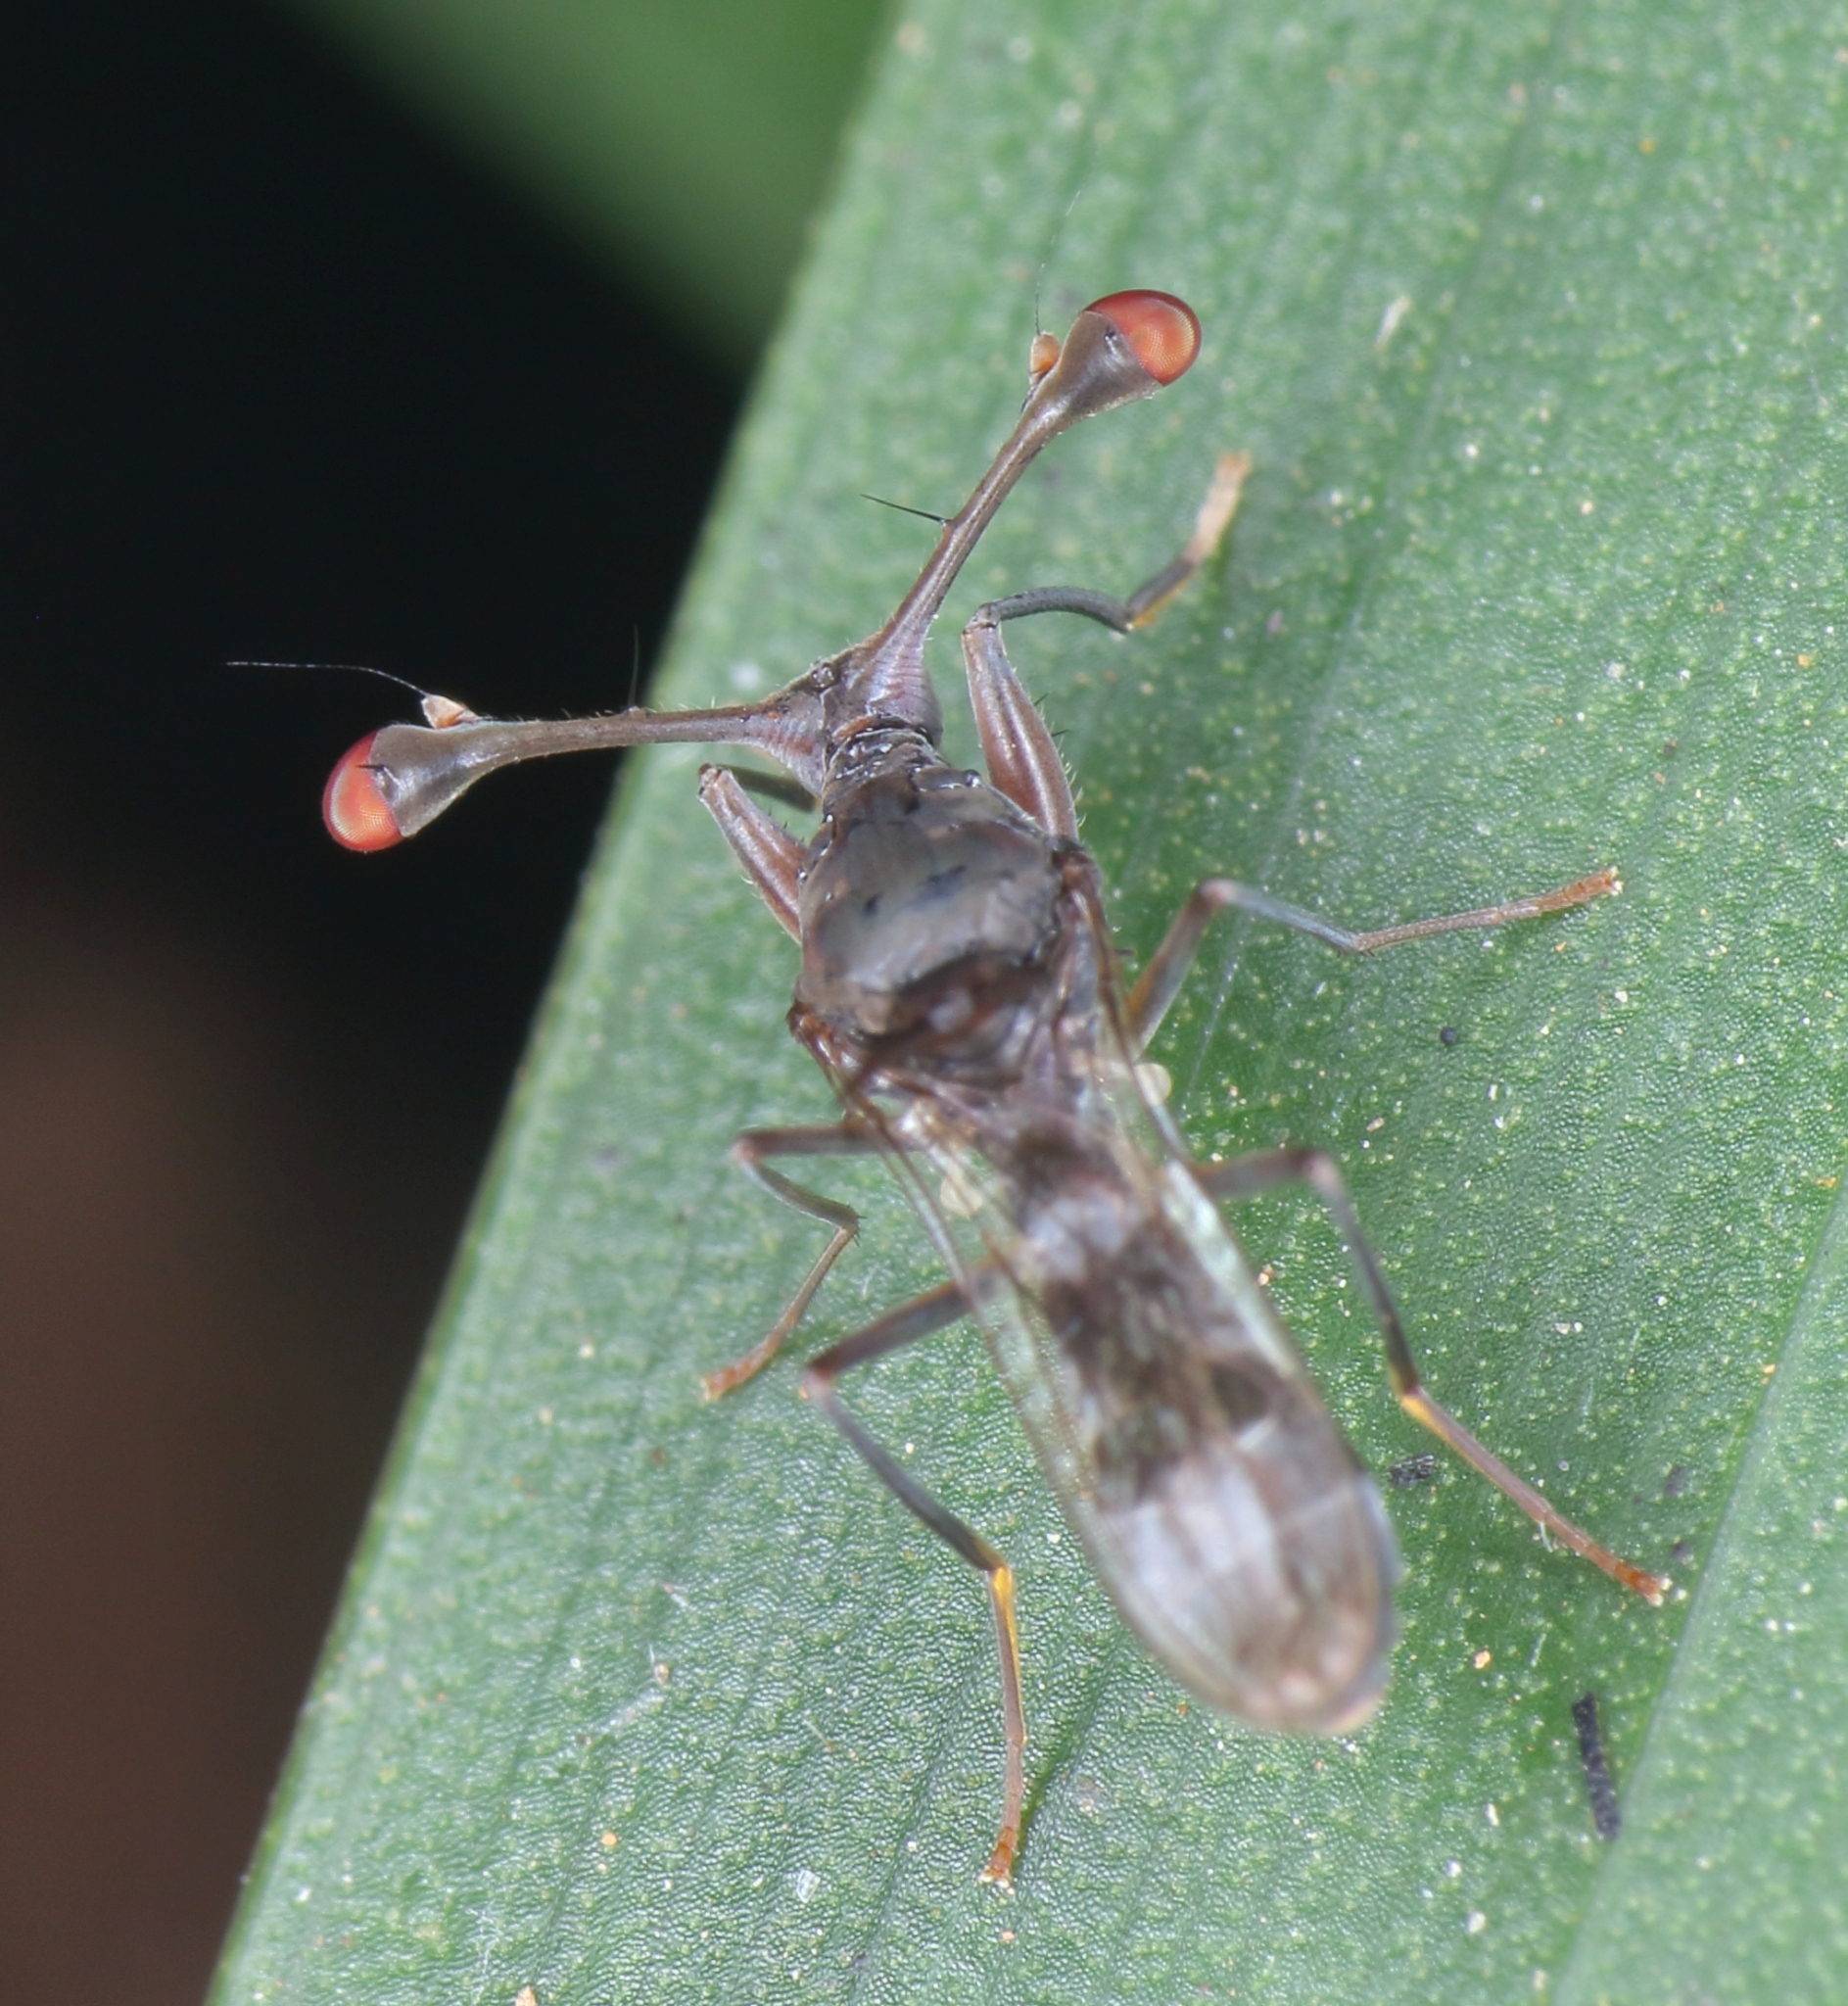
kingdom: Animalia
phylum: Arthropoda
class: Insecta
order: Diptera
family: Diopsidae
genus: Diasemopsis
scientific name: Diasemopsis obstans
